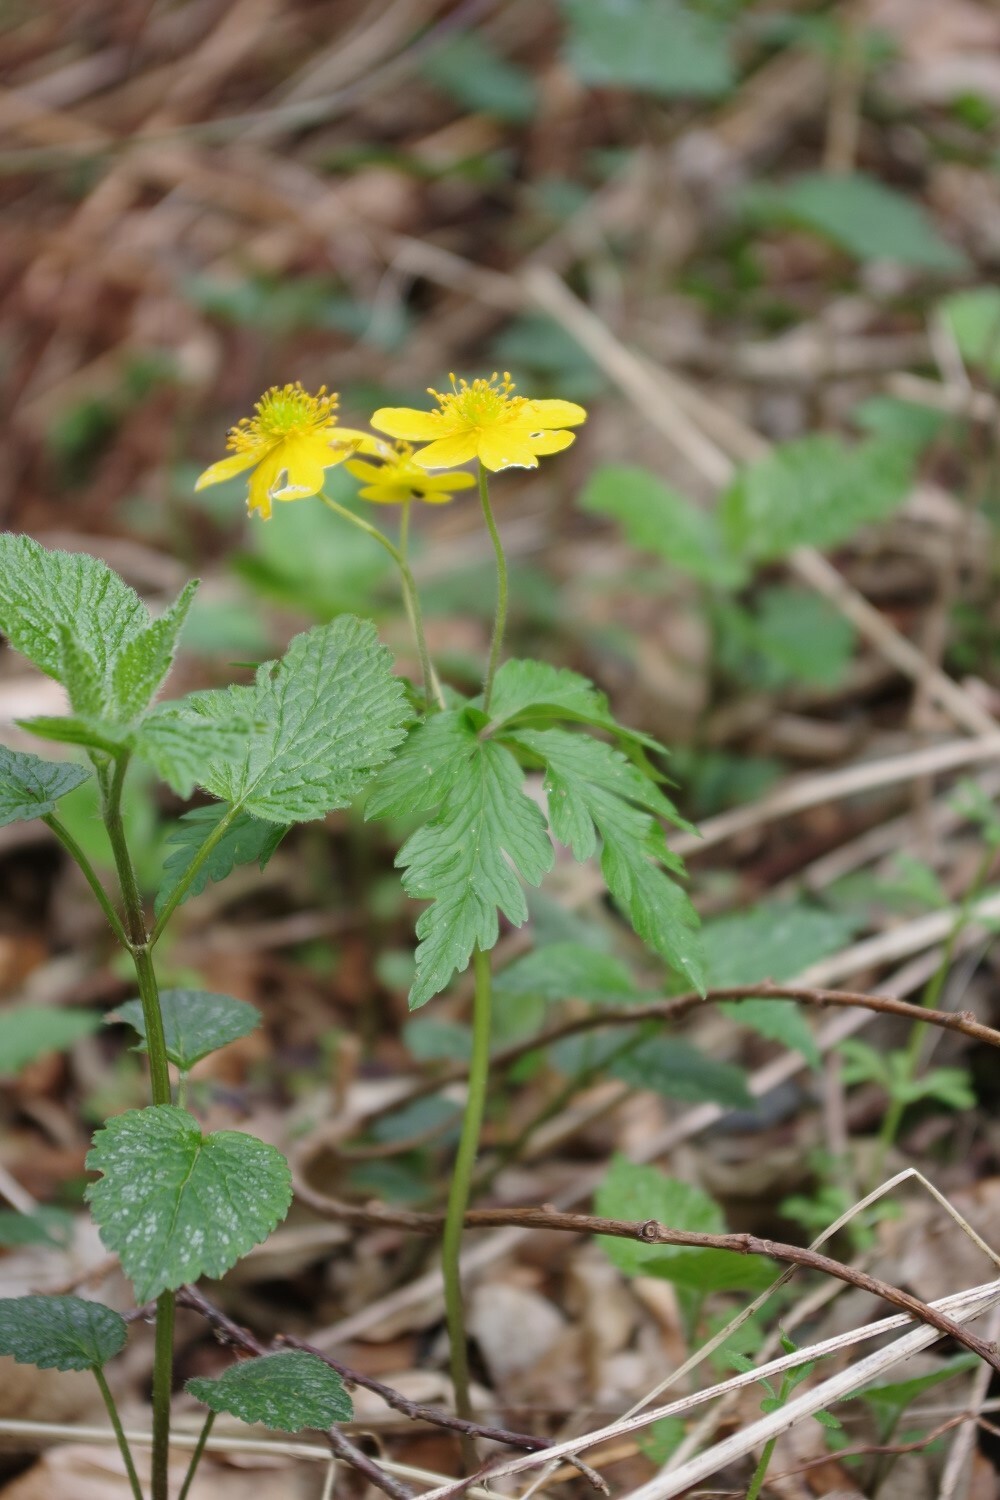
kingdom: Plantae
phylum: Tracheophyta
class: Magnoliopsida
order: Ranunculales
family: Ranunculaceae
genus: Anemone
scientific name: Anemone ranunculoides
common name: Yellow anemone
